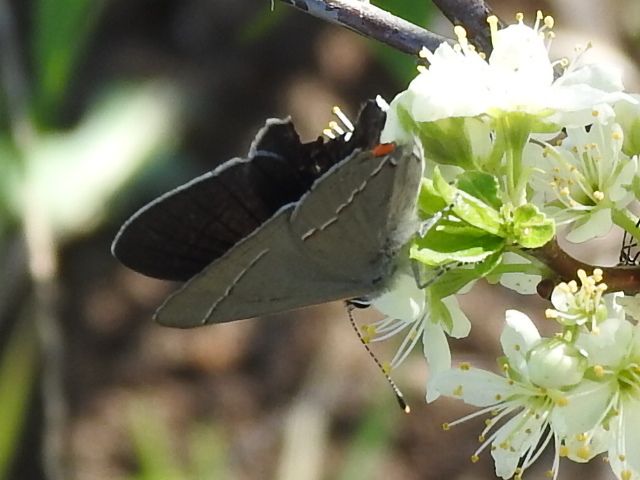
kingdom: Animalia
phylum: Arthropoda
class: Insecta
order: Lepidoptera
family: Lycaenidae
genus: Strymon
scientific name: Strymon melinus
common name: Gray hairstreak
